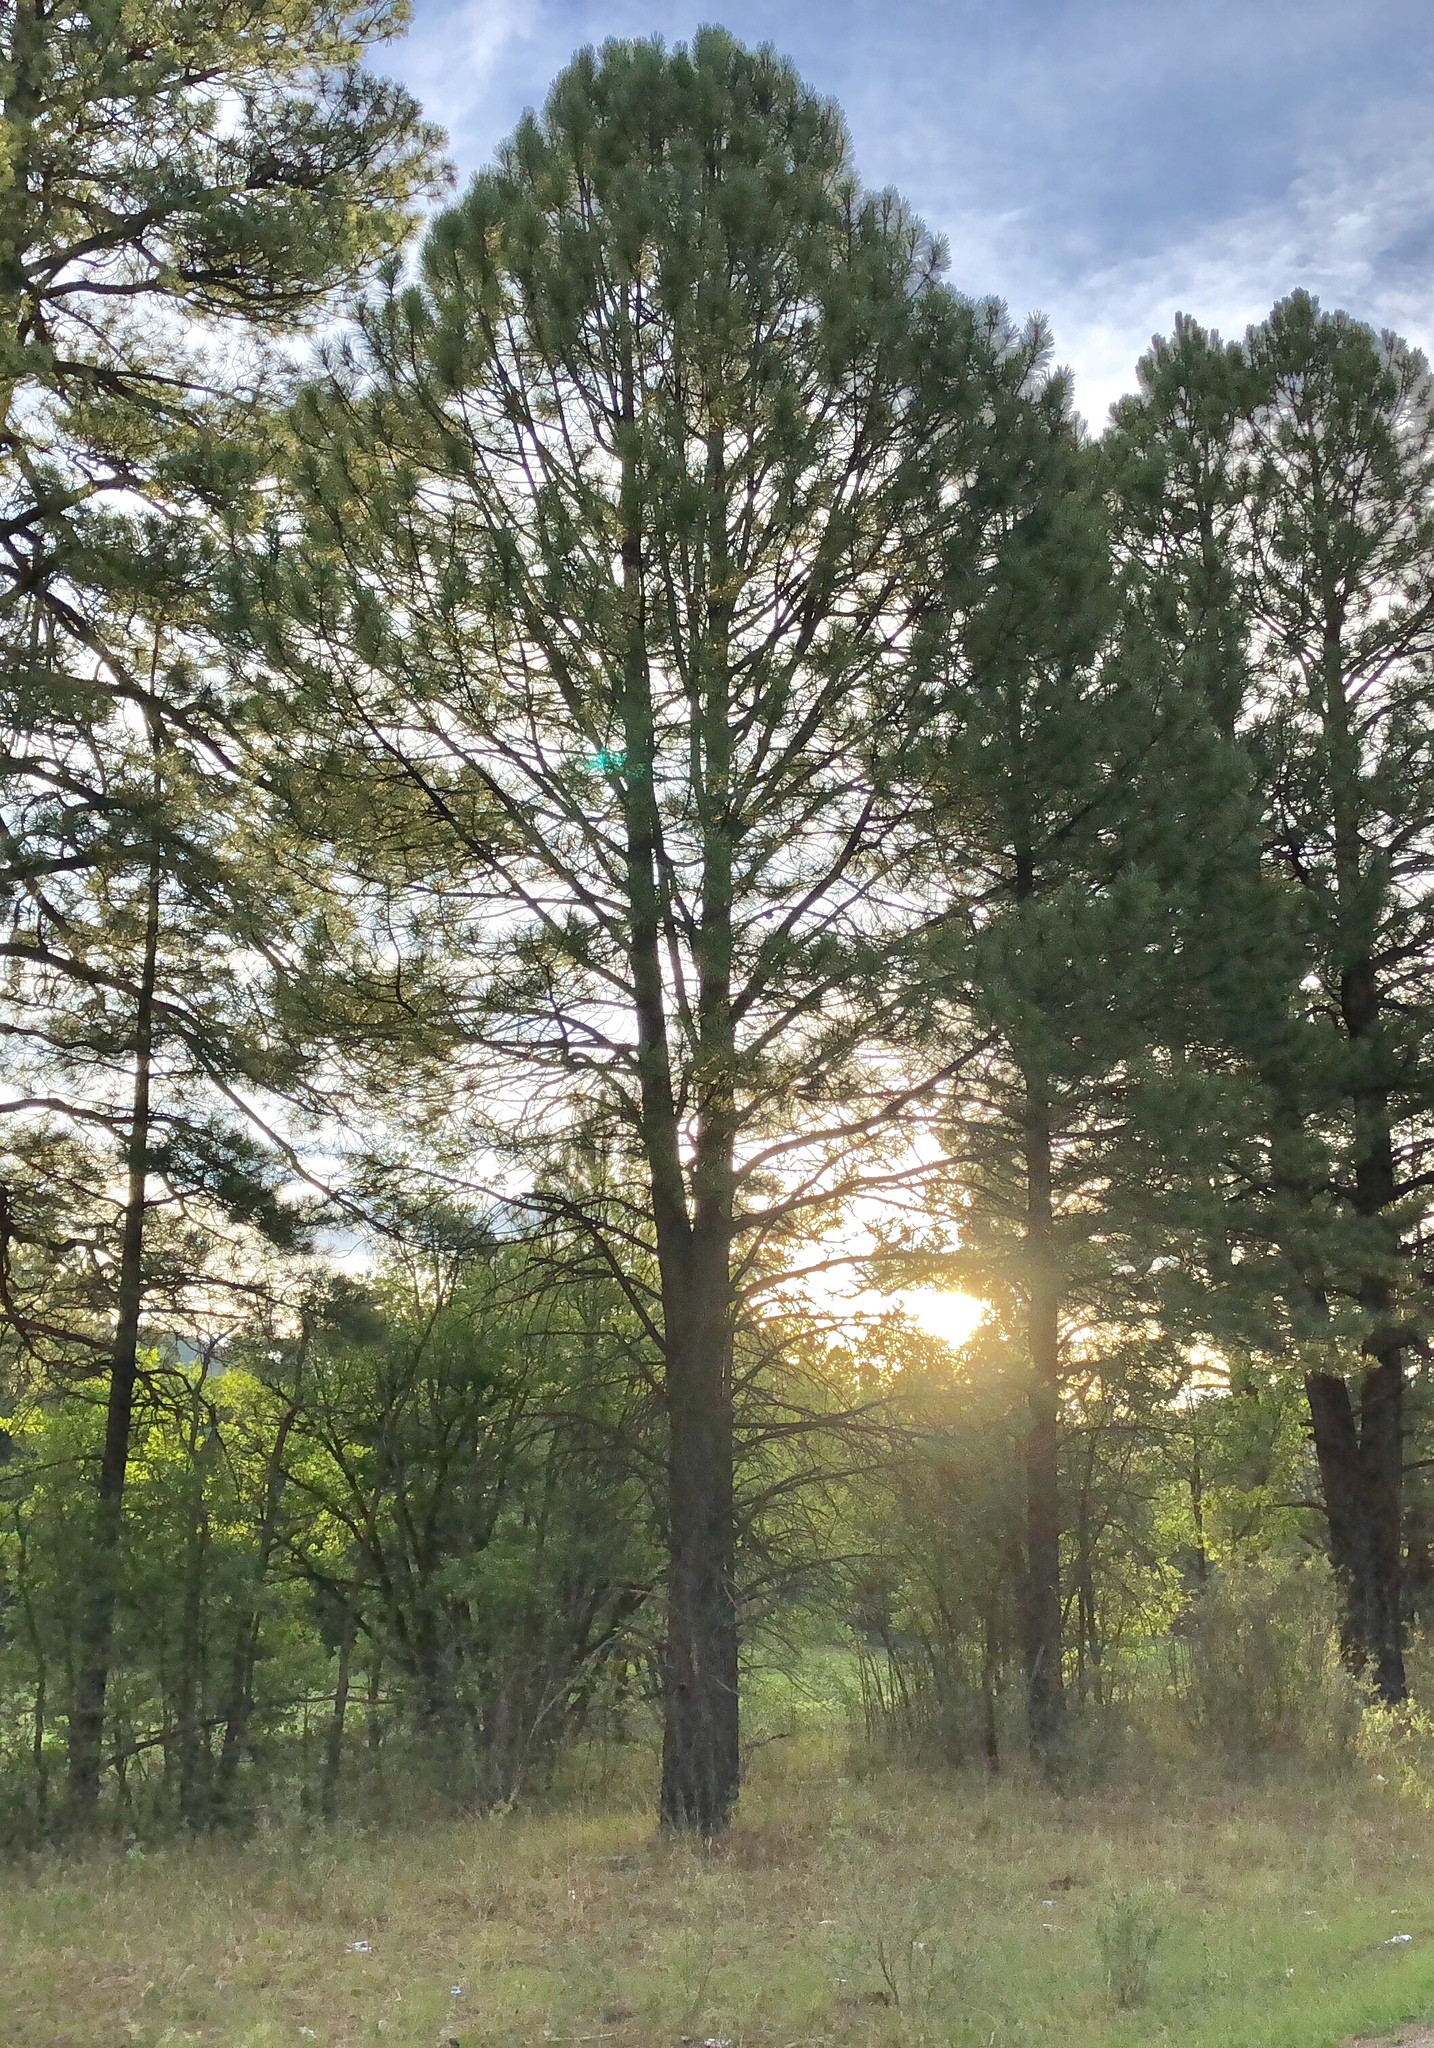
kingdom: Plantae
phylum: Tracheophyta
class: Pinopsida
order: Pinales
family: Pinaceae
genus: Pinus
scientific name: Pinus ponderosa
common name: Western yellow-pine
